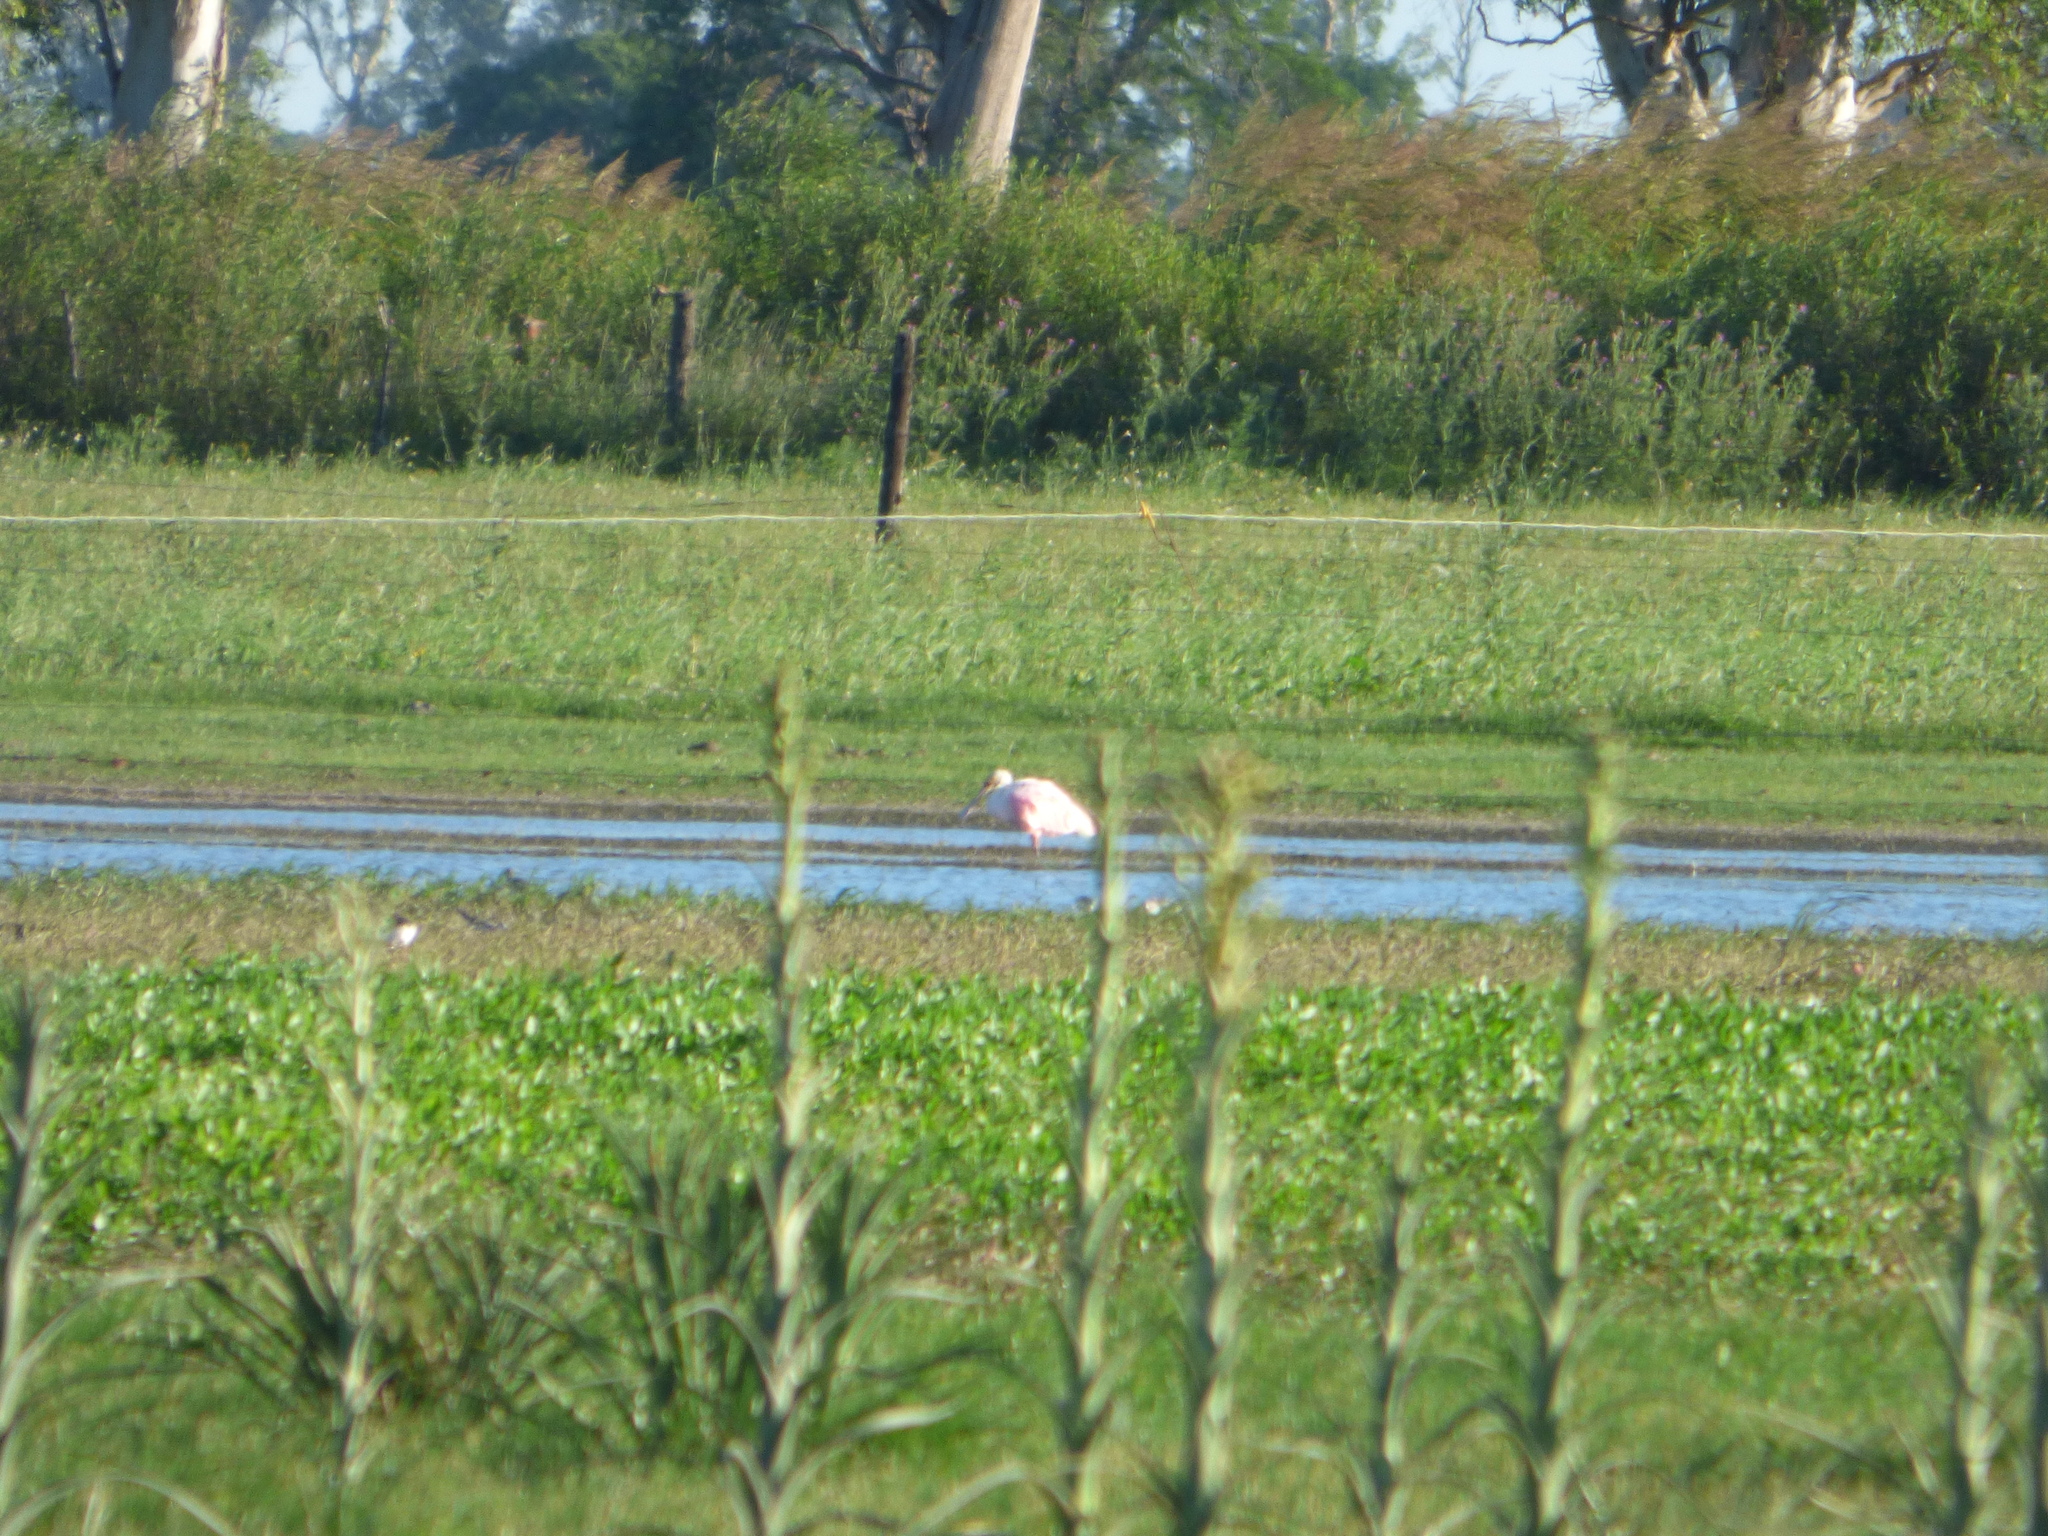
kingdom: Animalia
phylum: Chordata
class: Aves
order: Pelecaniformes
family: Threskiornithidae
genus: Platalea
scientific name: Platalea ajaja
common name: Roseate spoonbill
